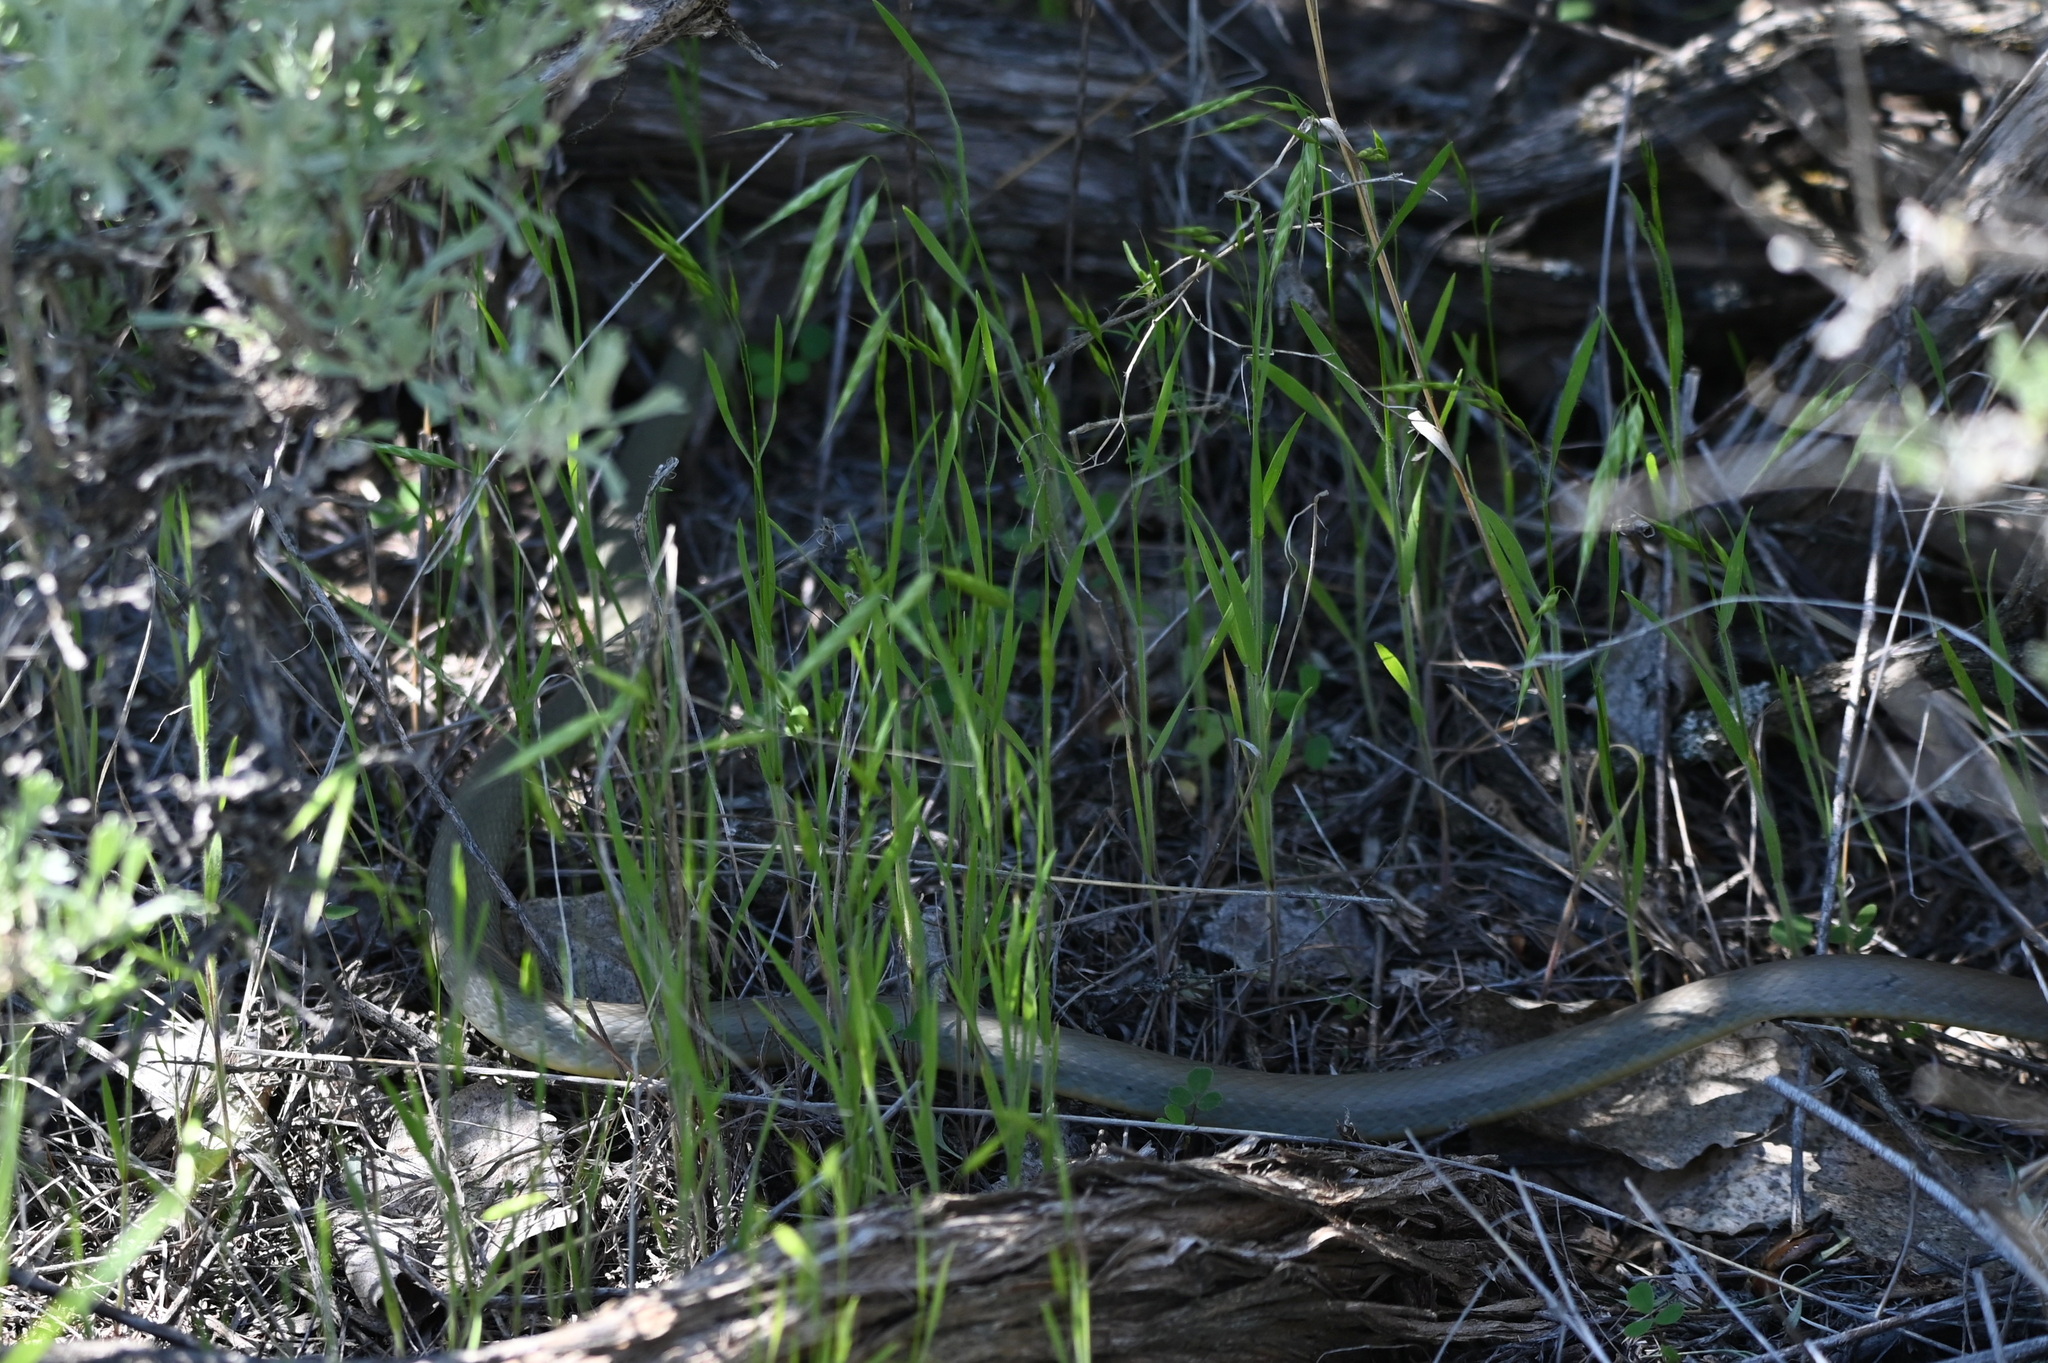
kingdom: Animalia
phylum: Chordata
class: Squamata
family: Colubridae
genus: Coluber
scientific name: Coluber constrictor
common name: Eastern racer
